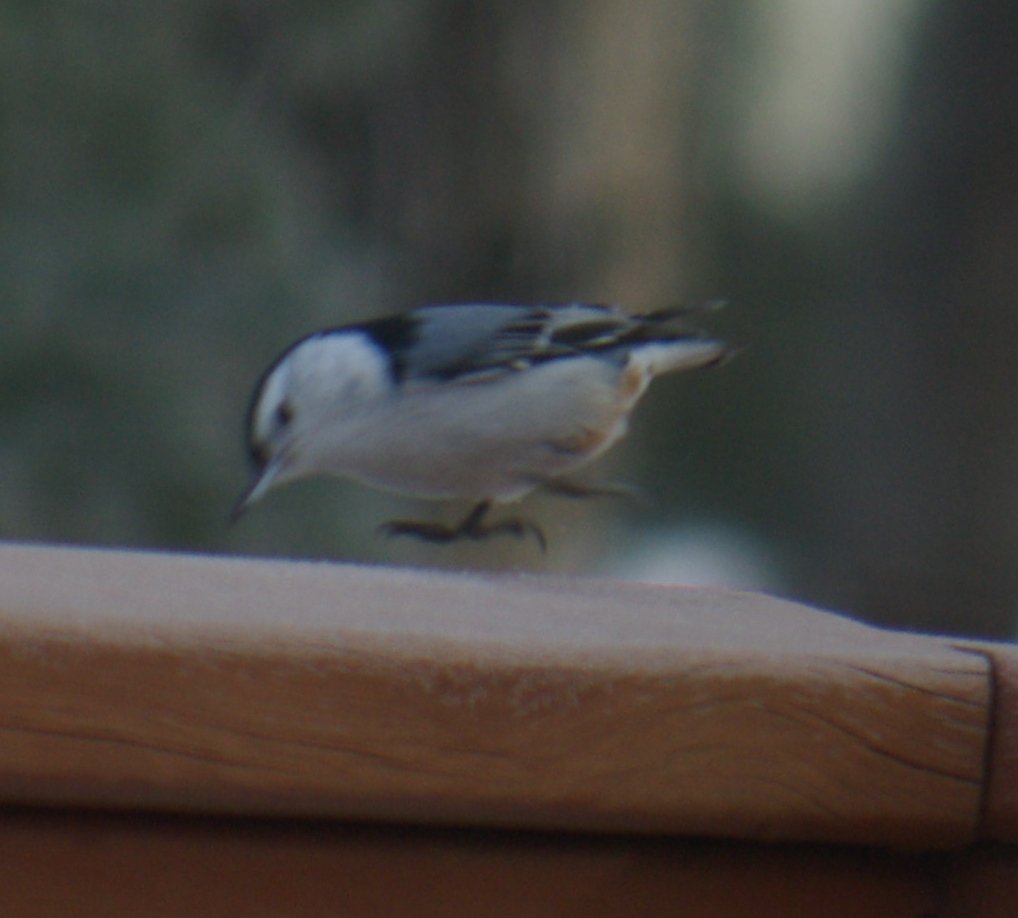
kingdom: Animalia
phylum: Chordata
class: Aves
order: Passeriformes
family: Sittidae
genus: Sitta
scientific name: Sitta carolinensis
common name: White-breasted nuthatch
